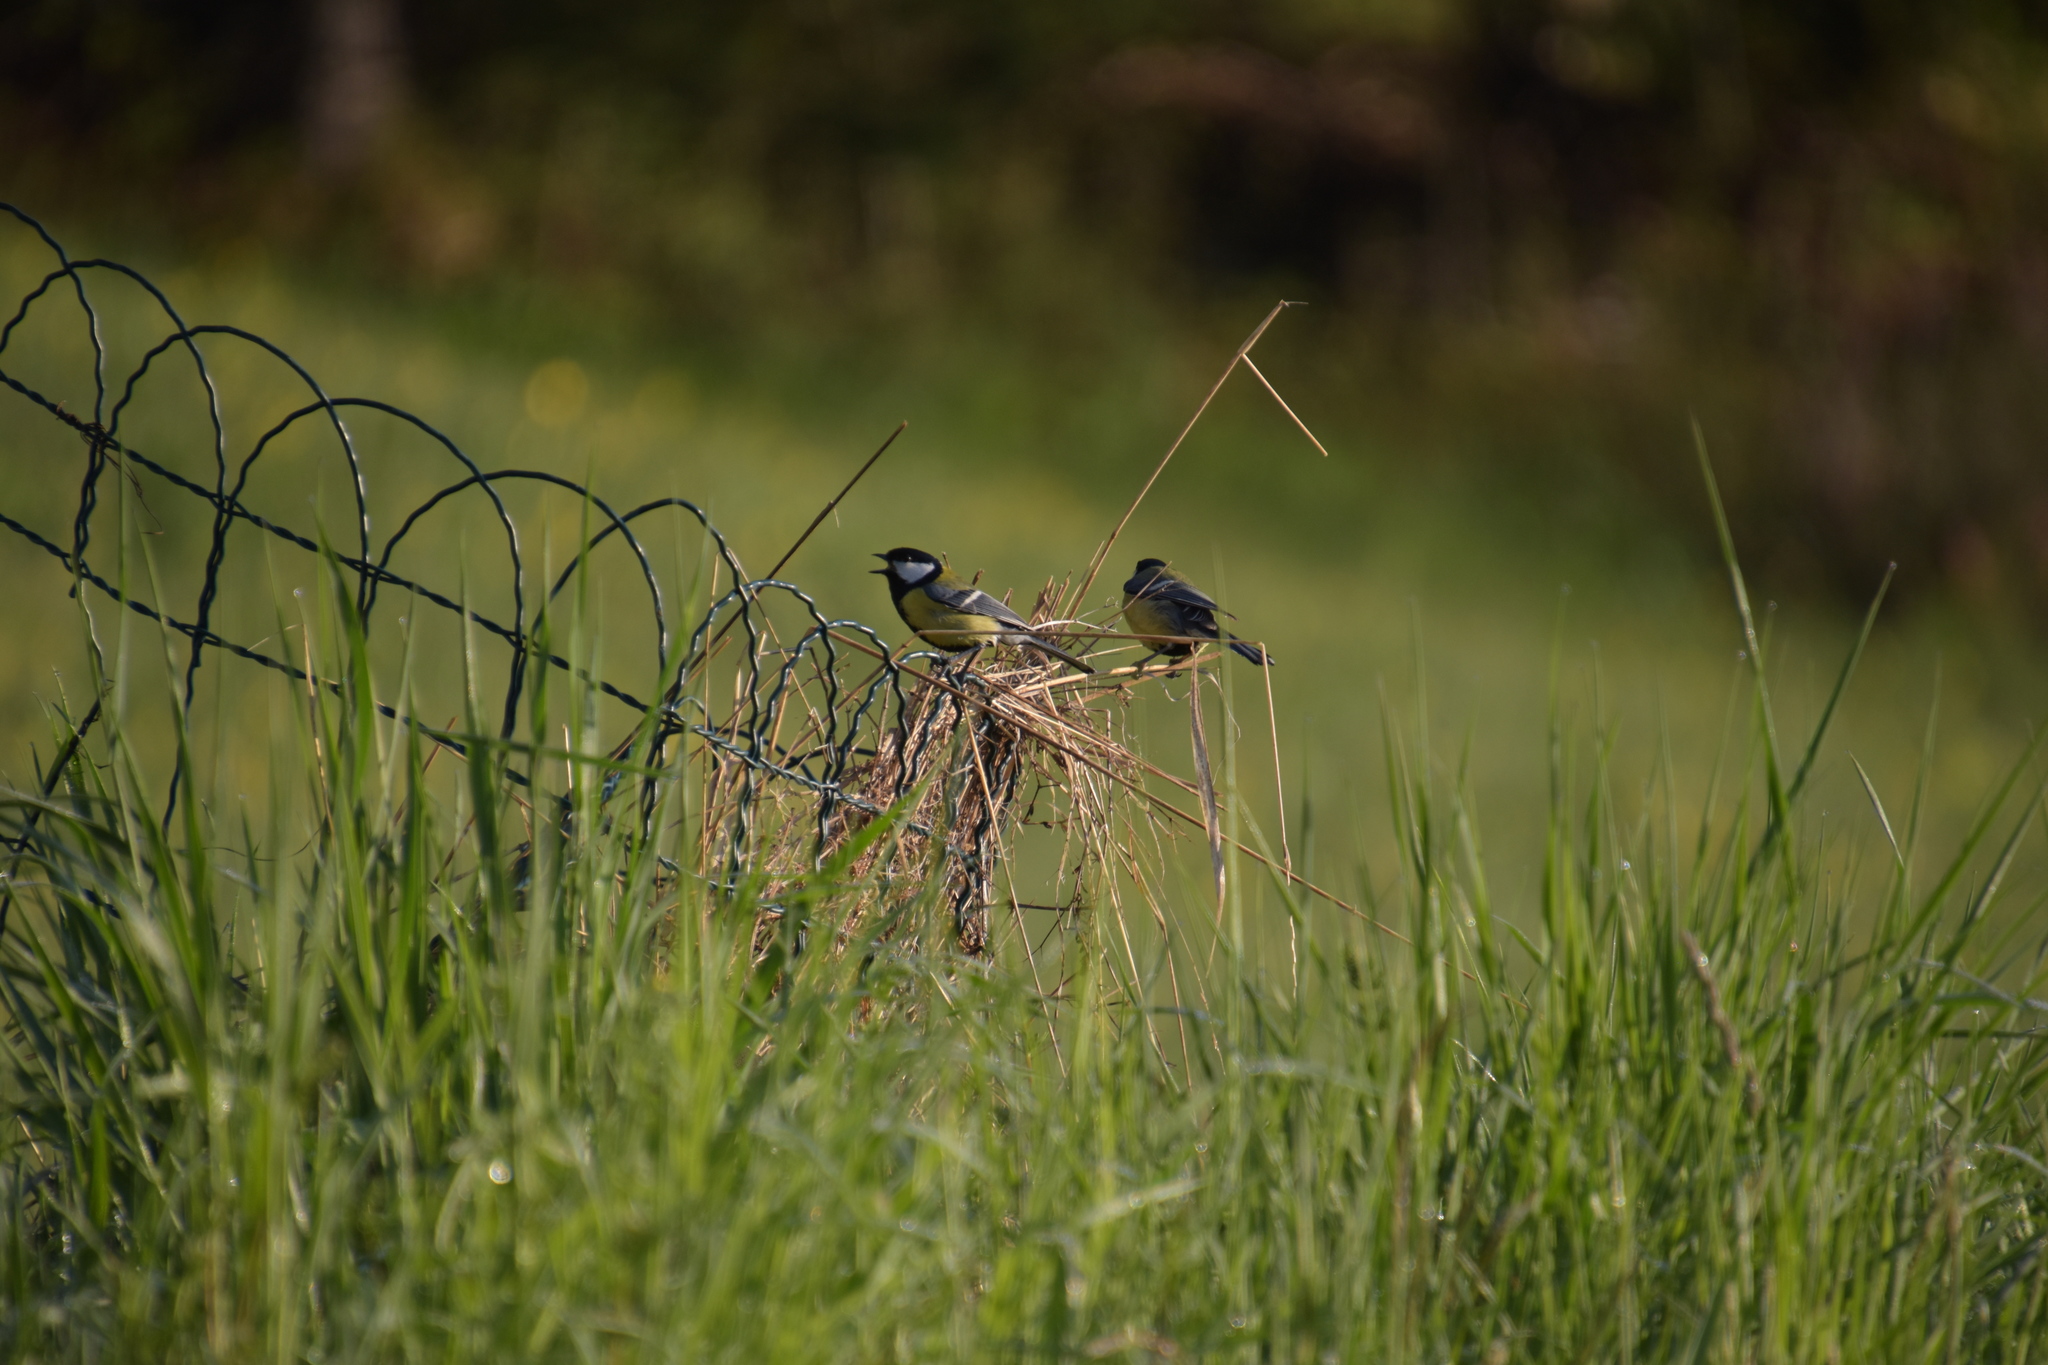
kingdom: Animalia
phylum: Chordata
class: Aves
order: Passeriformes
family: Paridae
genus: Parus
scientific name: Parus major
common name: Great tit
